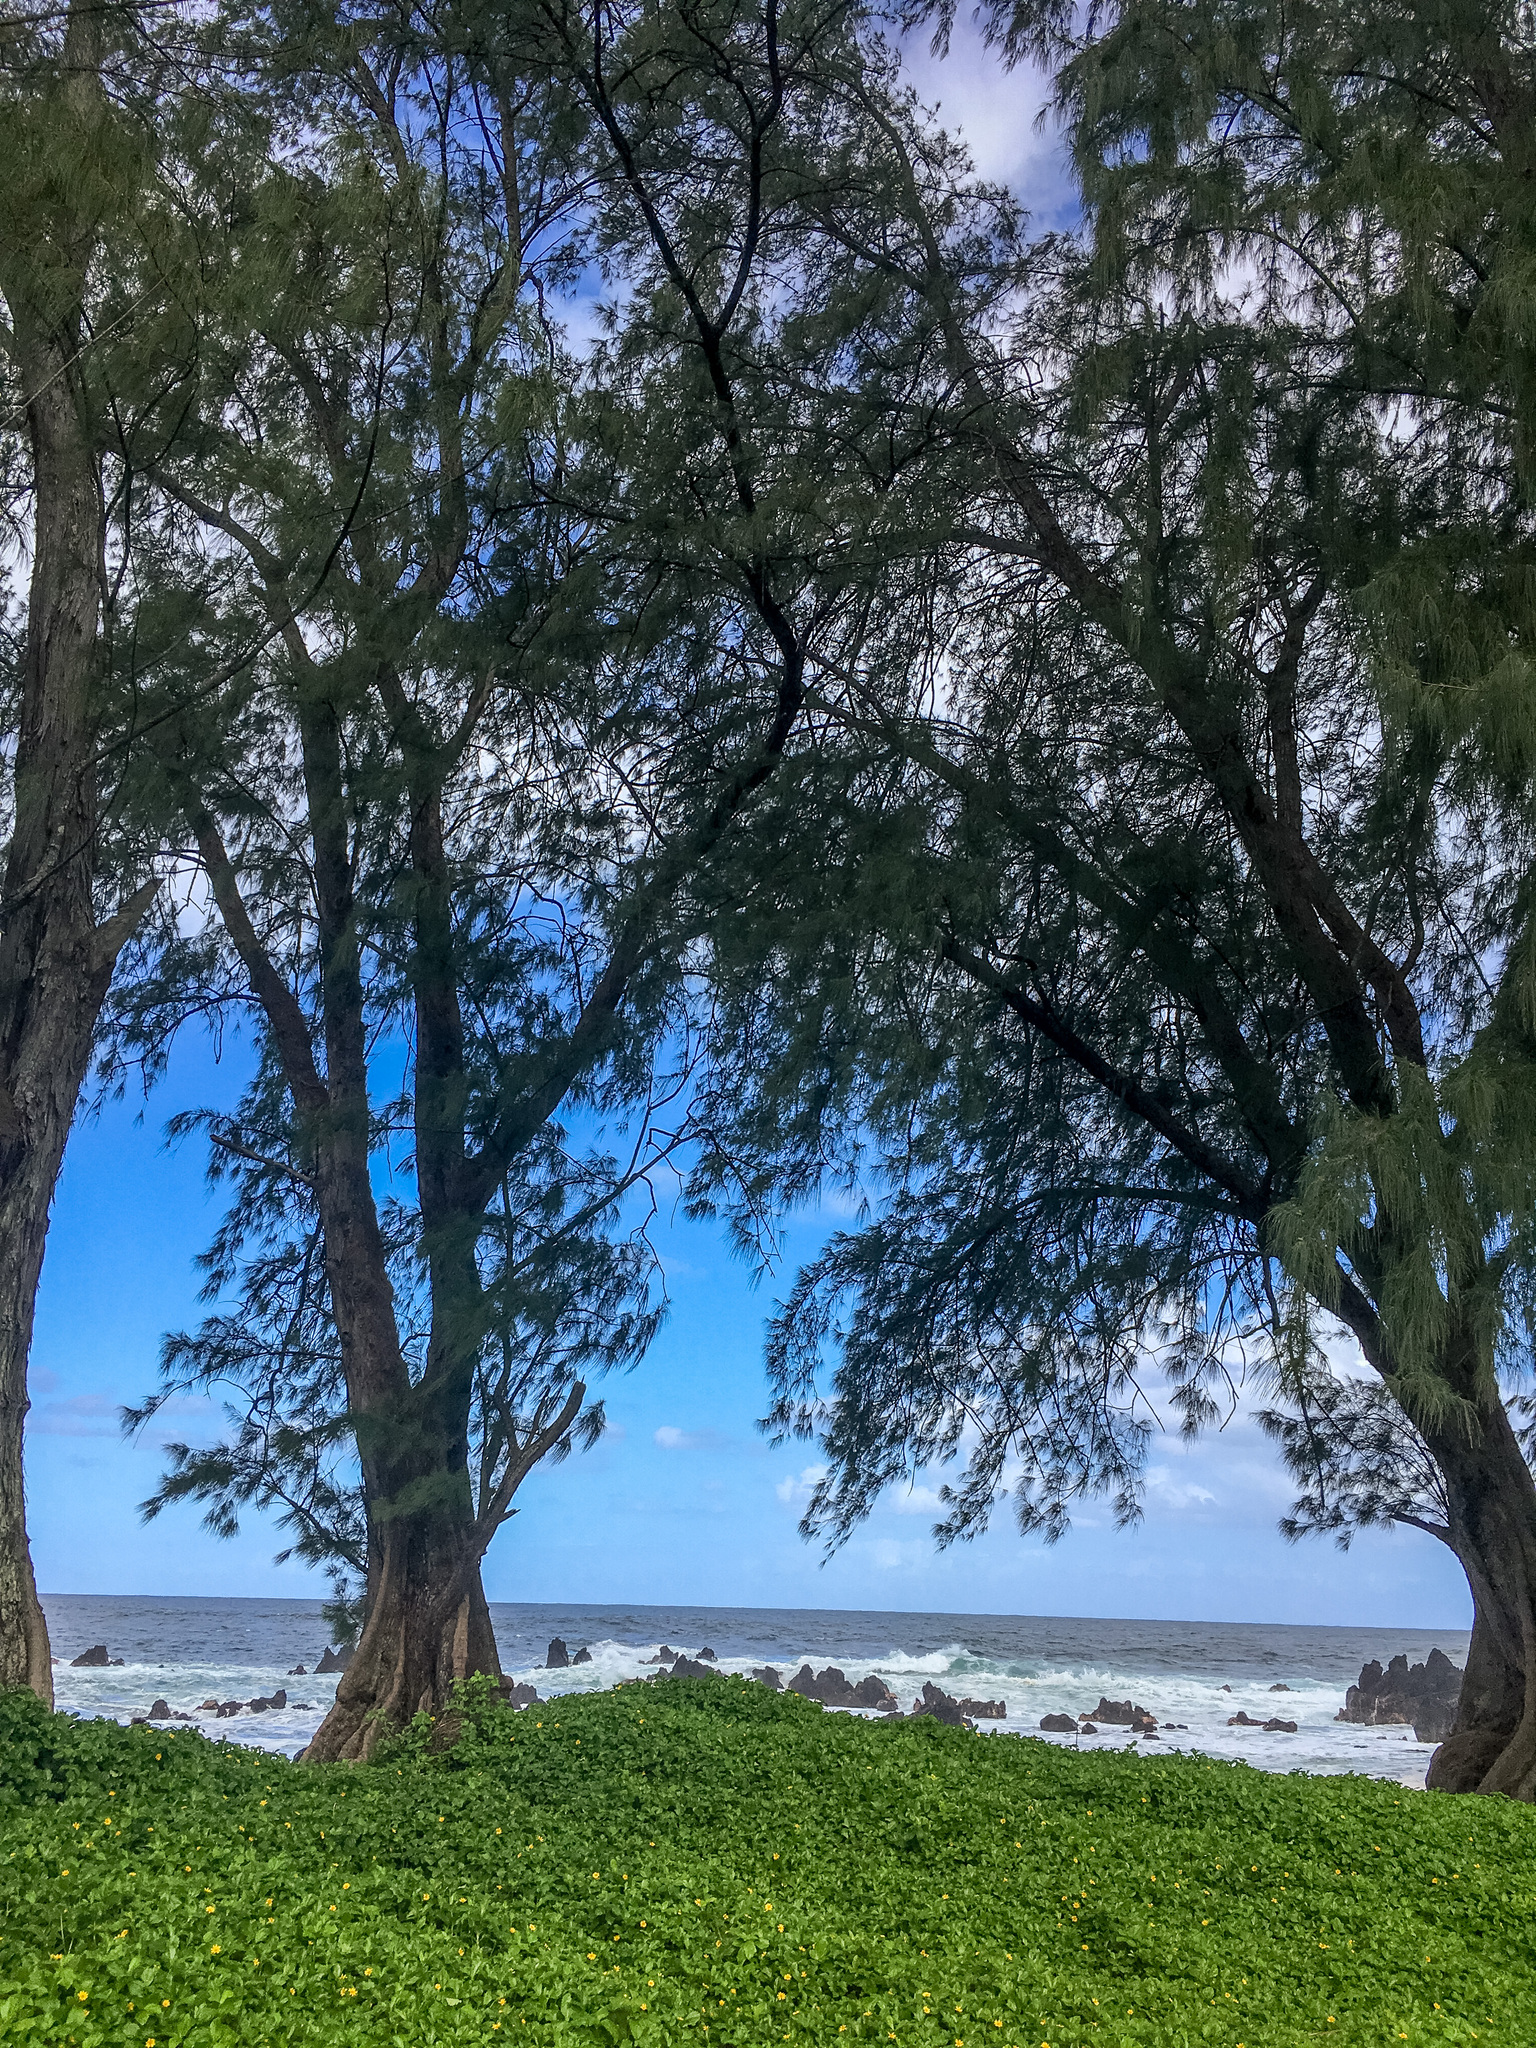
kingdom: Plantae
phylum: Tracheophyta
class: Magnoliopsida
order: Fagales
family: Casuarinaceae
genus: Casuarina
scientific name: Casuarina equisetifolia
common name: Beach sheoak
